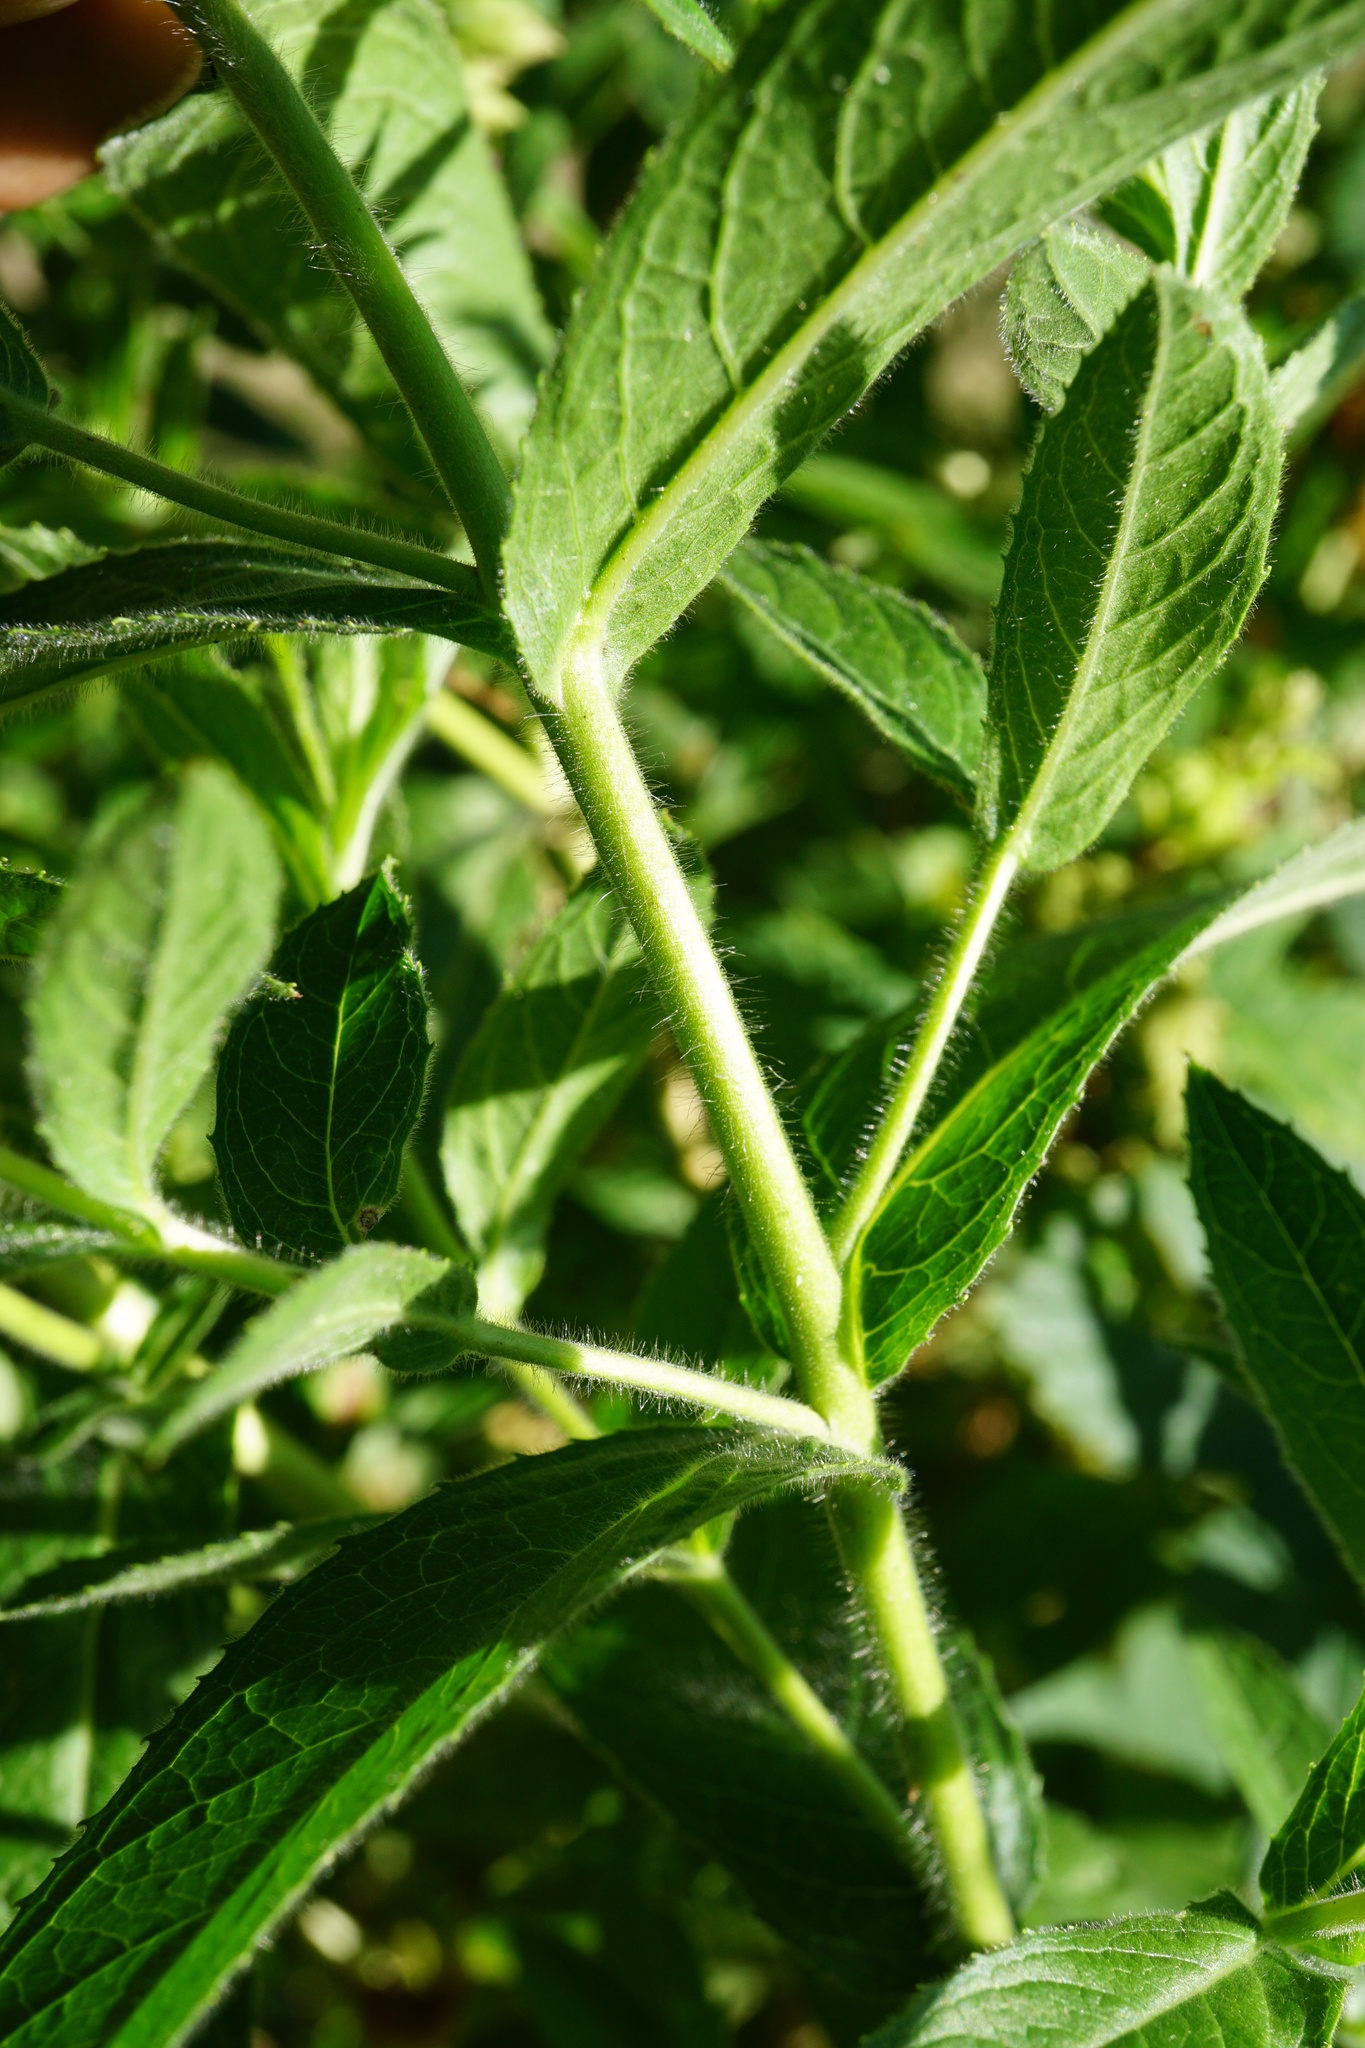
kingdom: Plantae
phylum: Tracheophyta
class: Magnoliopsida
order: Myrtales
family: Onagraceae
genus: Epilobium
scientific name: Epilobium hirsutum
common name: Great willowherb
